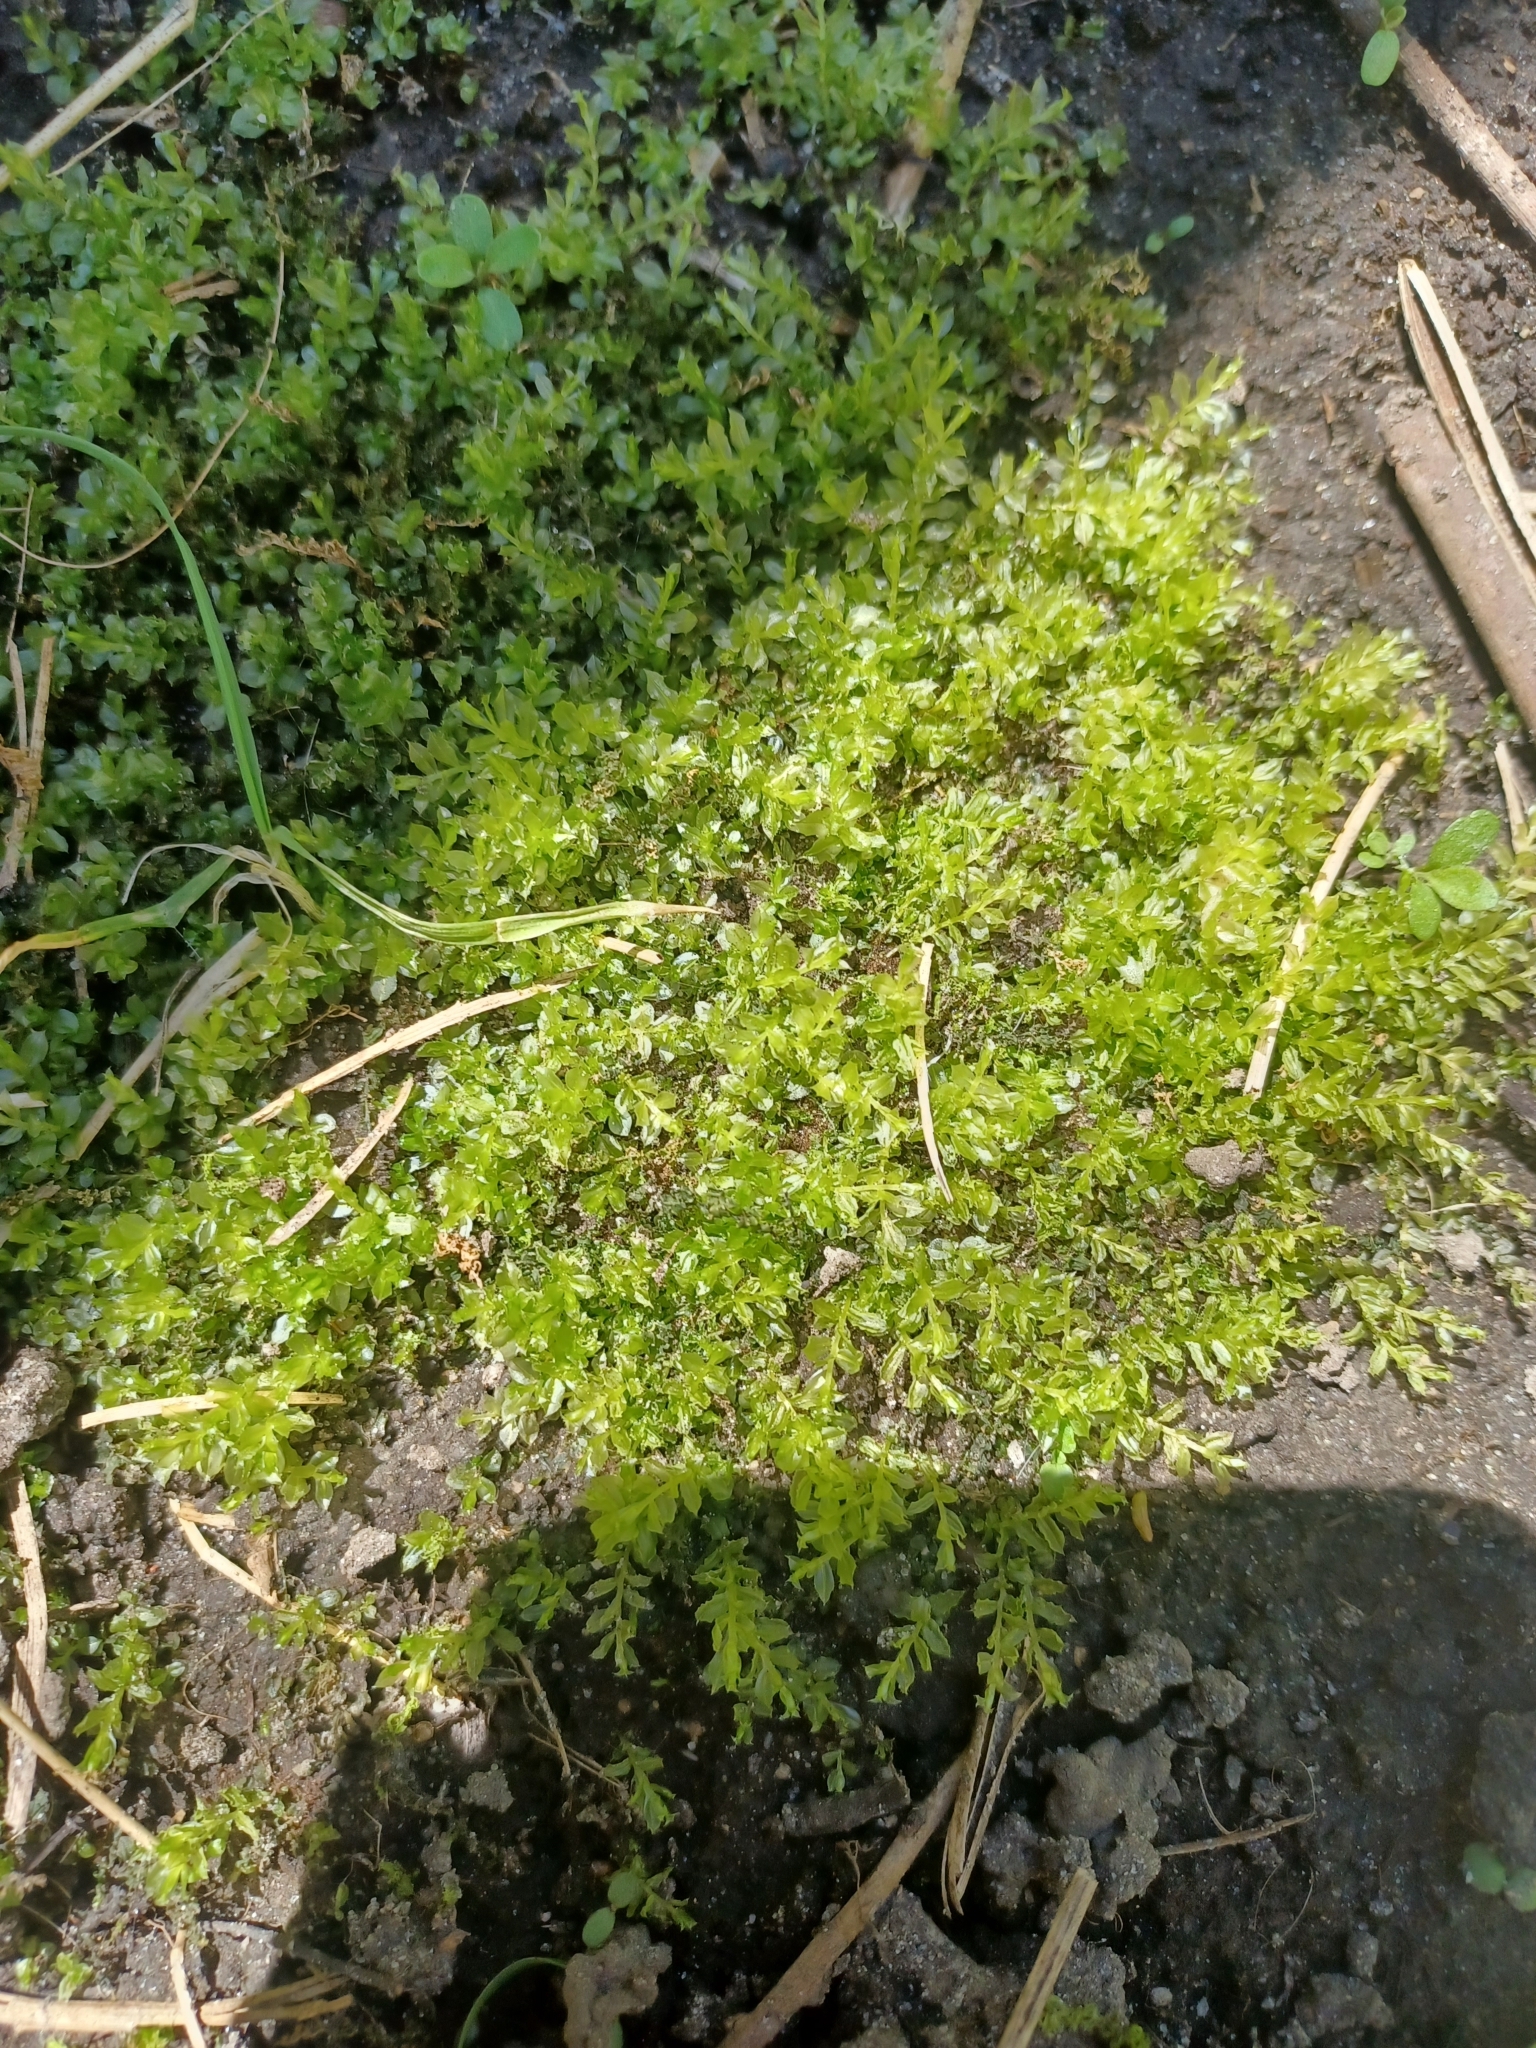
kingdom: Plantae
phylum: Bryophyta
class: Bryopsida
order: Bryales
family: Mniaceae
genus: Plagiomnium
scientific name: Plagiomnium cuspidatum
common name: Woodsy leafy moss
